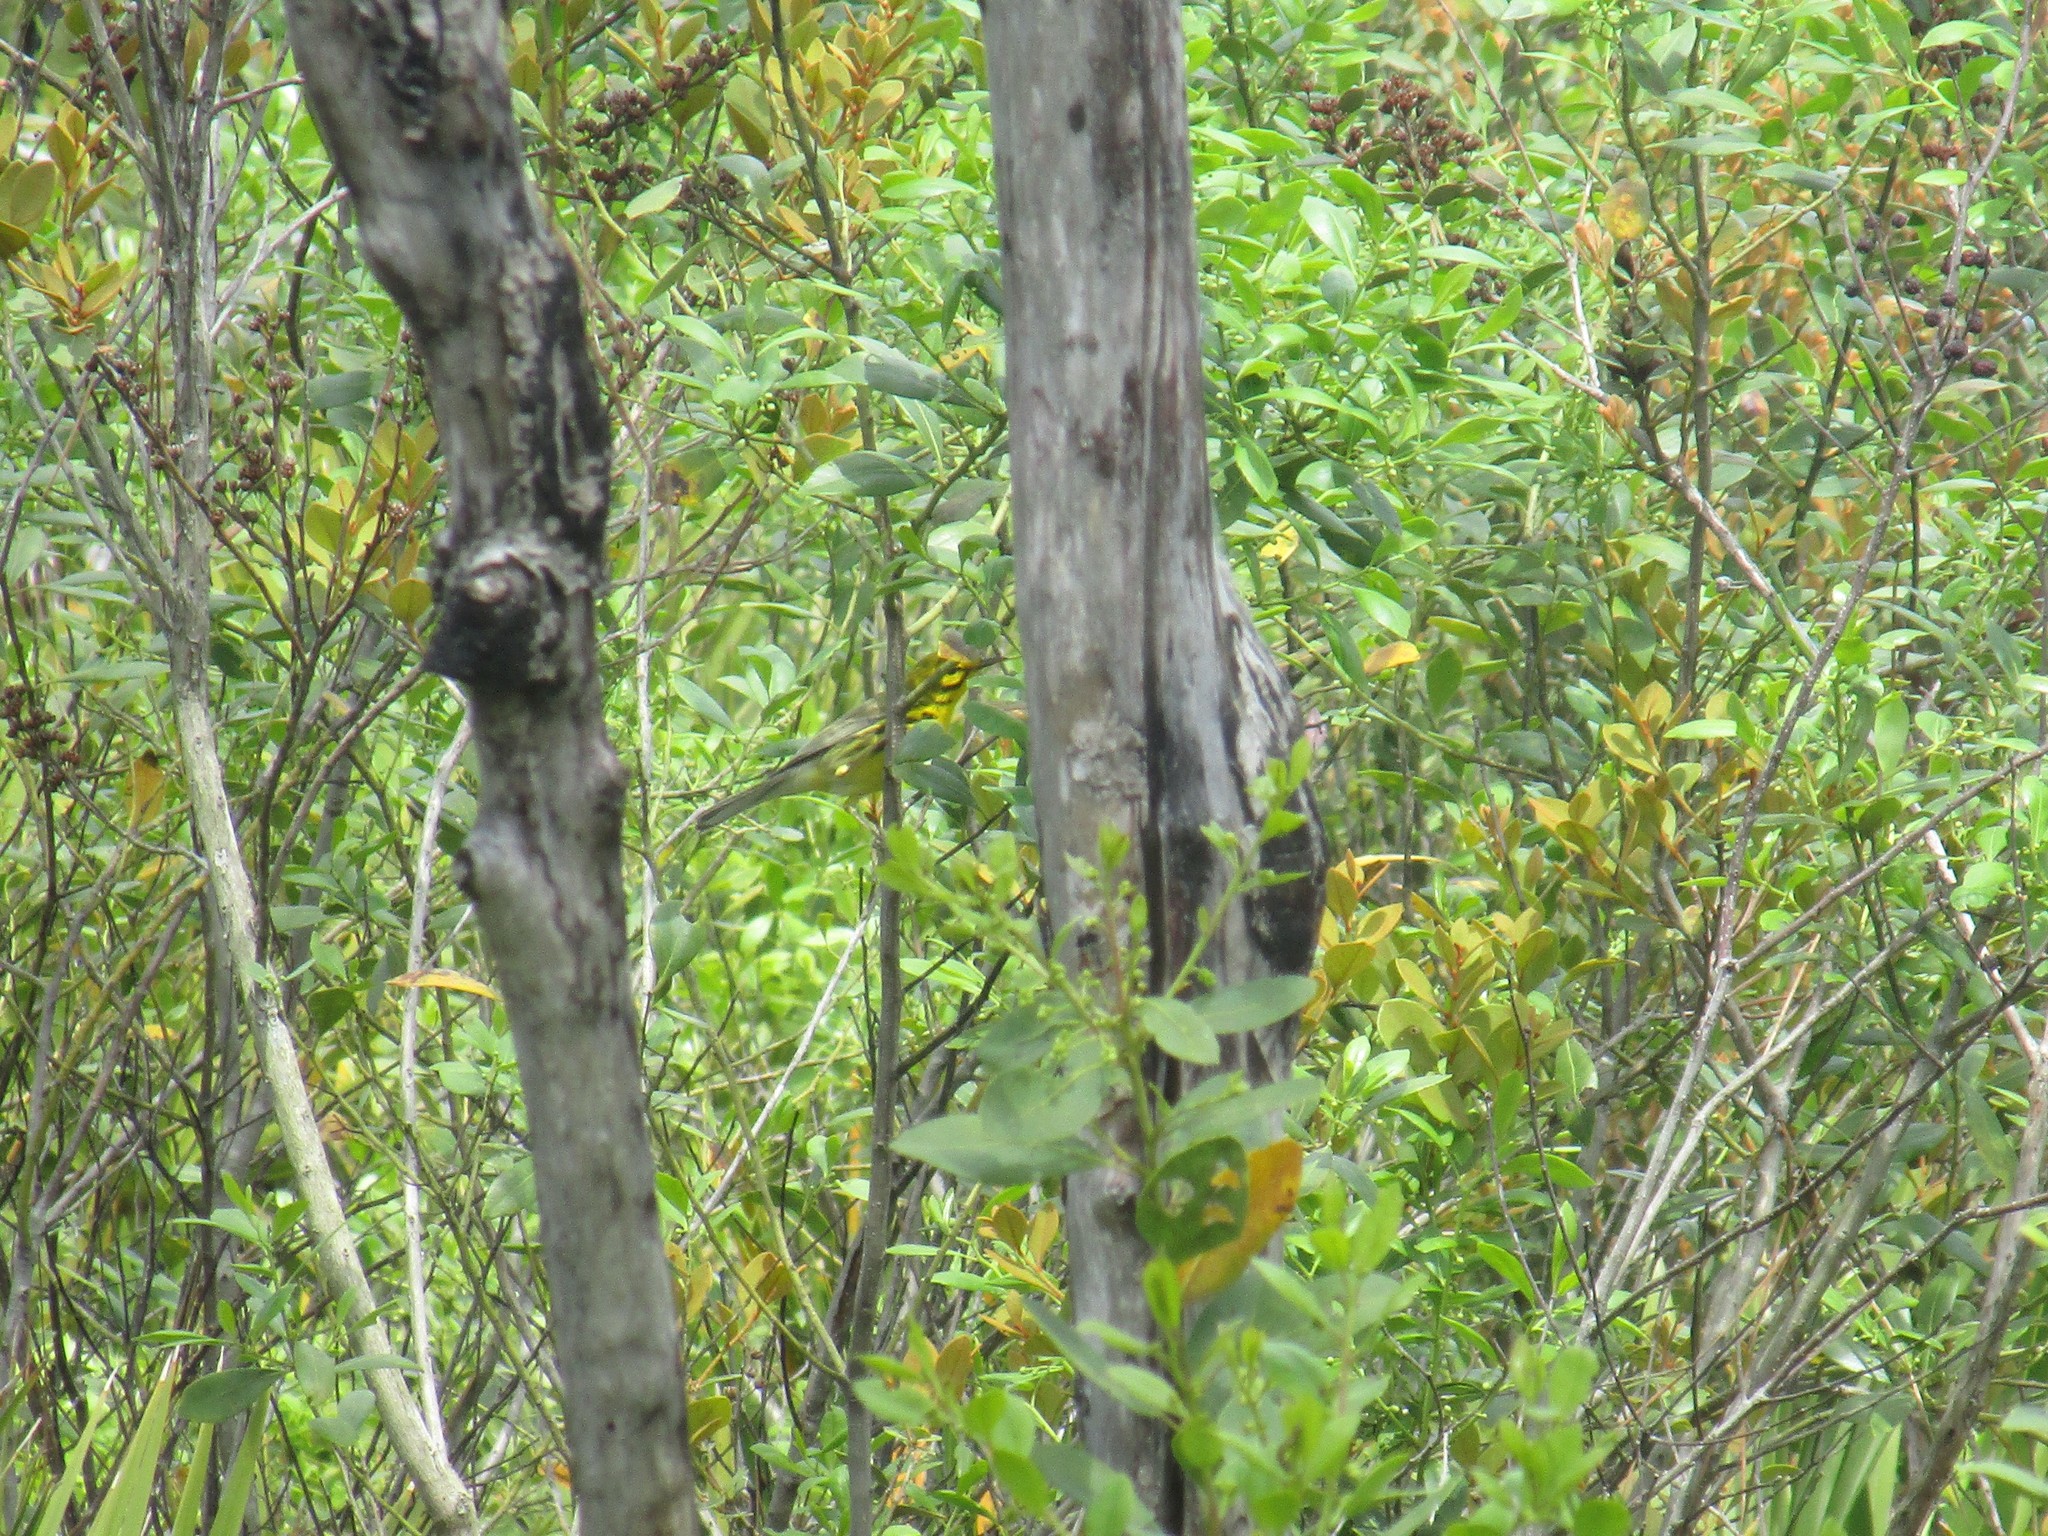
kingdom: Animalia
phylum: Chordata
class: Aves
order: Passeriformes
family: Parulidae
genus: Setophaga
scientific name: Setophaga discolor
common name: Prairie warbler
